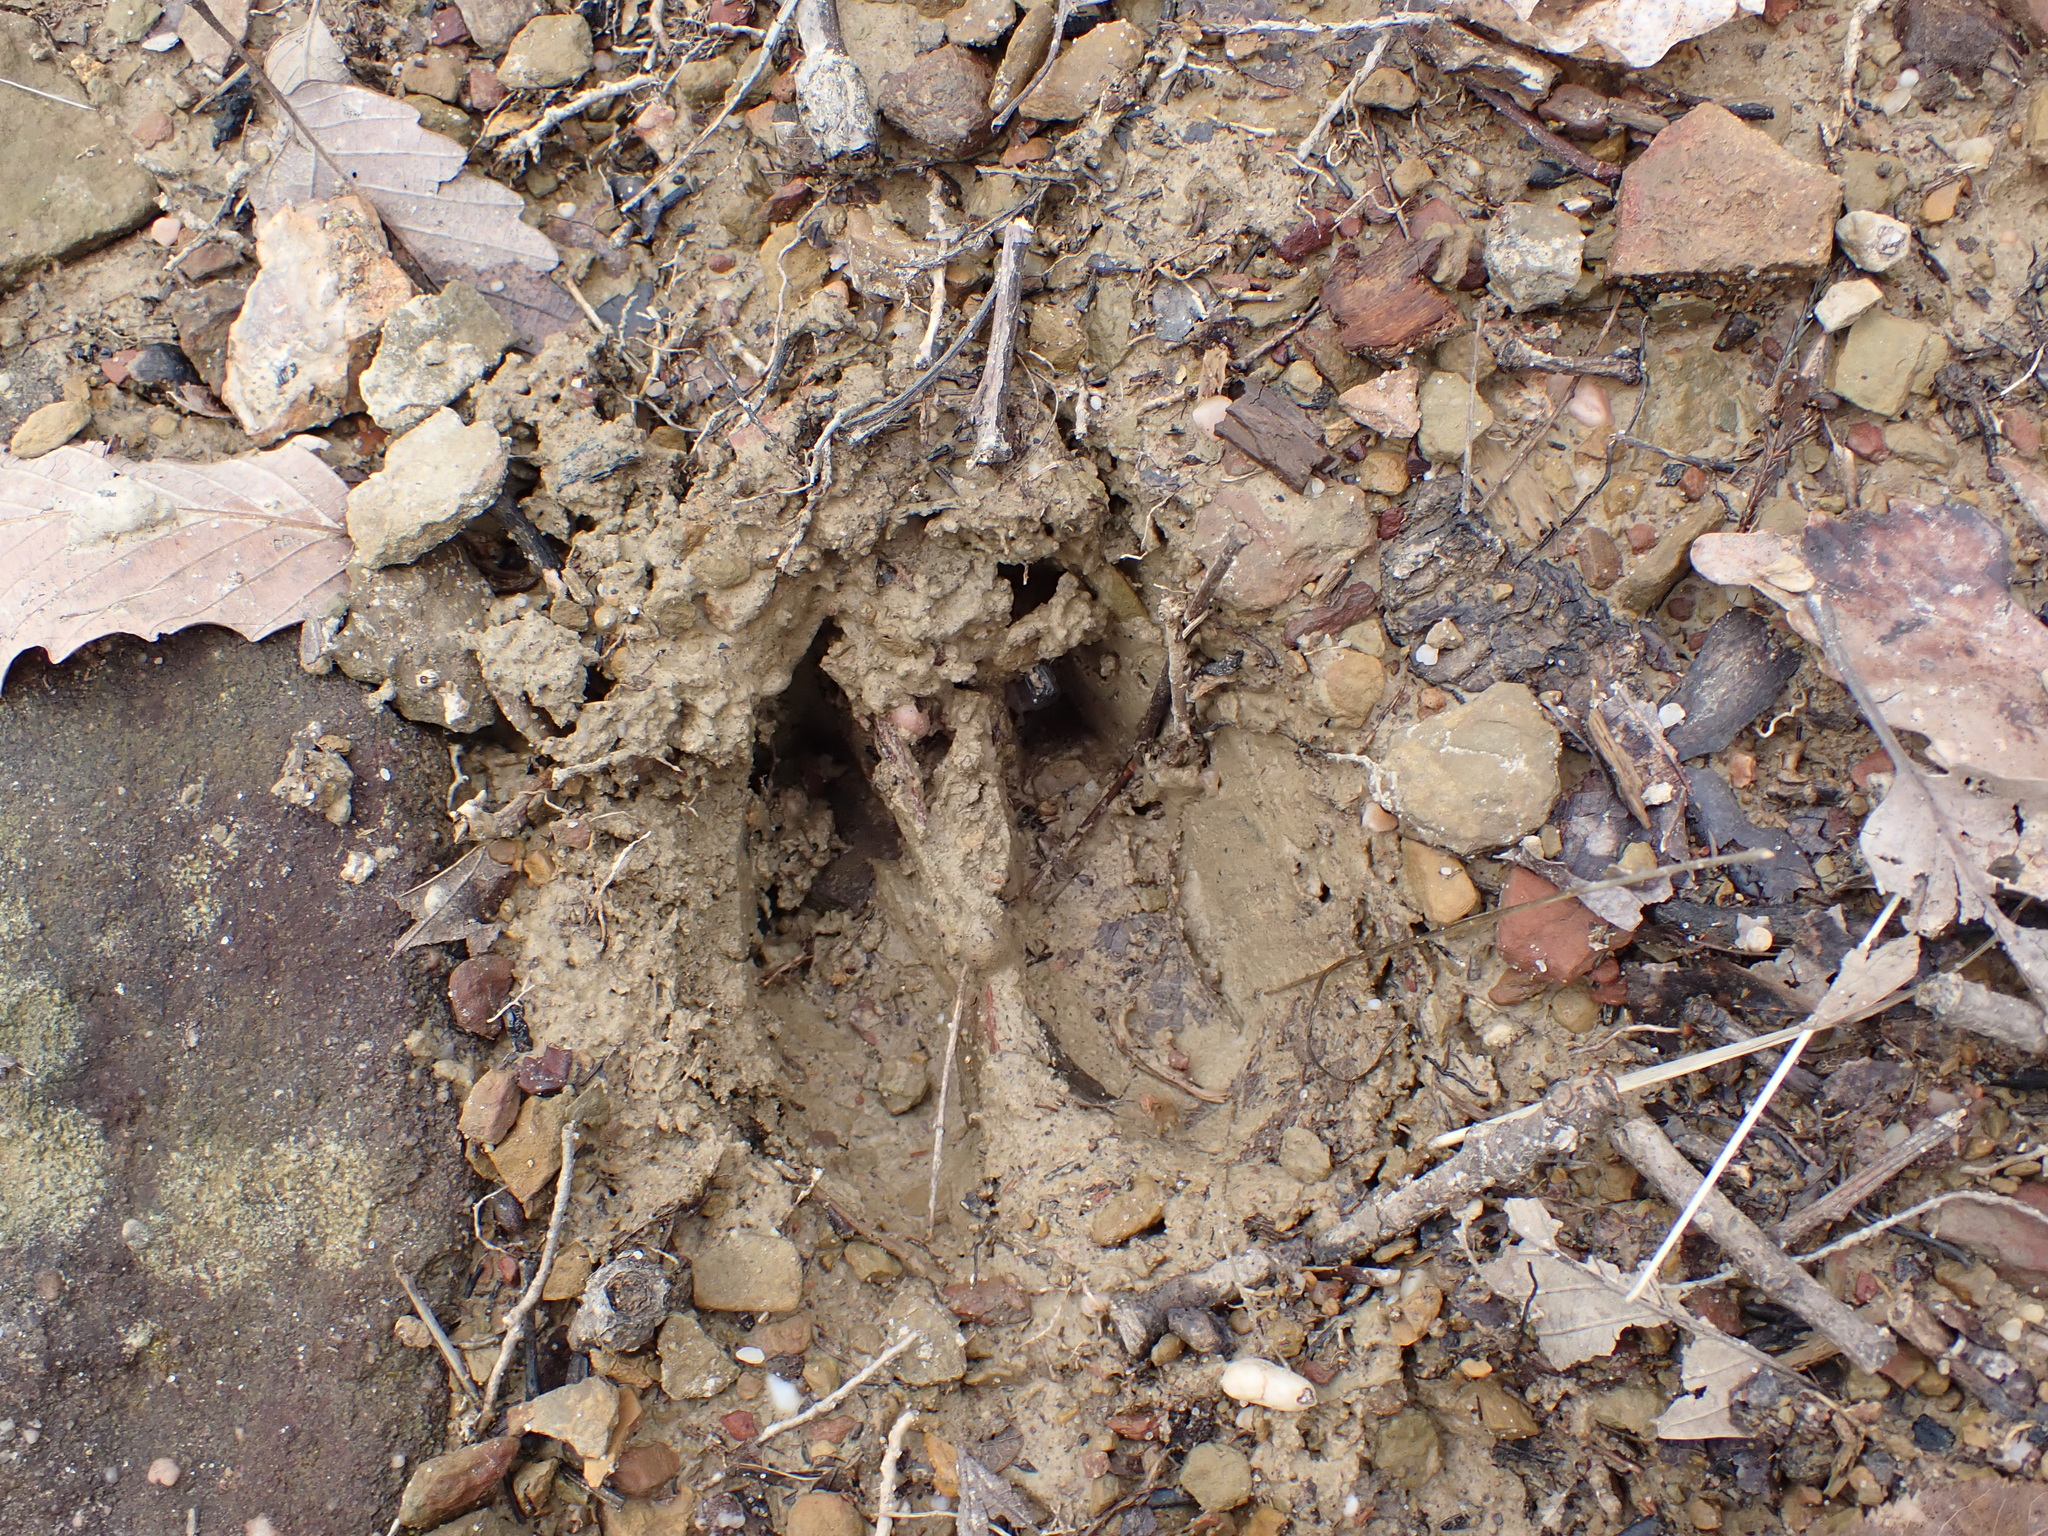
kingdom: Animalia
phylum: Chordata
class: Mammalia
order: Artiodactyla
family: Cervidae
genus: Odocoileus
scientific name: Odocoileus virginianus
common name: White-tailed deer
